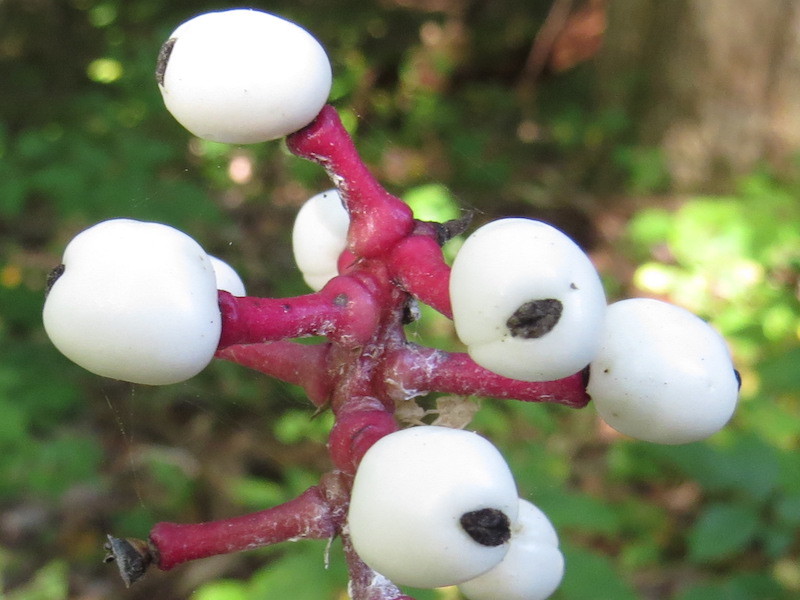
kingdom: Plantae
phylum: Tracheophyta
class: Magnoliopsida
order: Ranunculales
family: Ranunculaceae
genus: Actaea
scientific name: Actaea pachypoda
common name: Doll's-eyes
